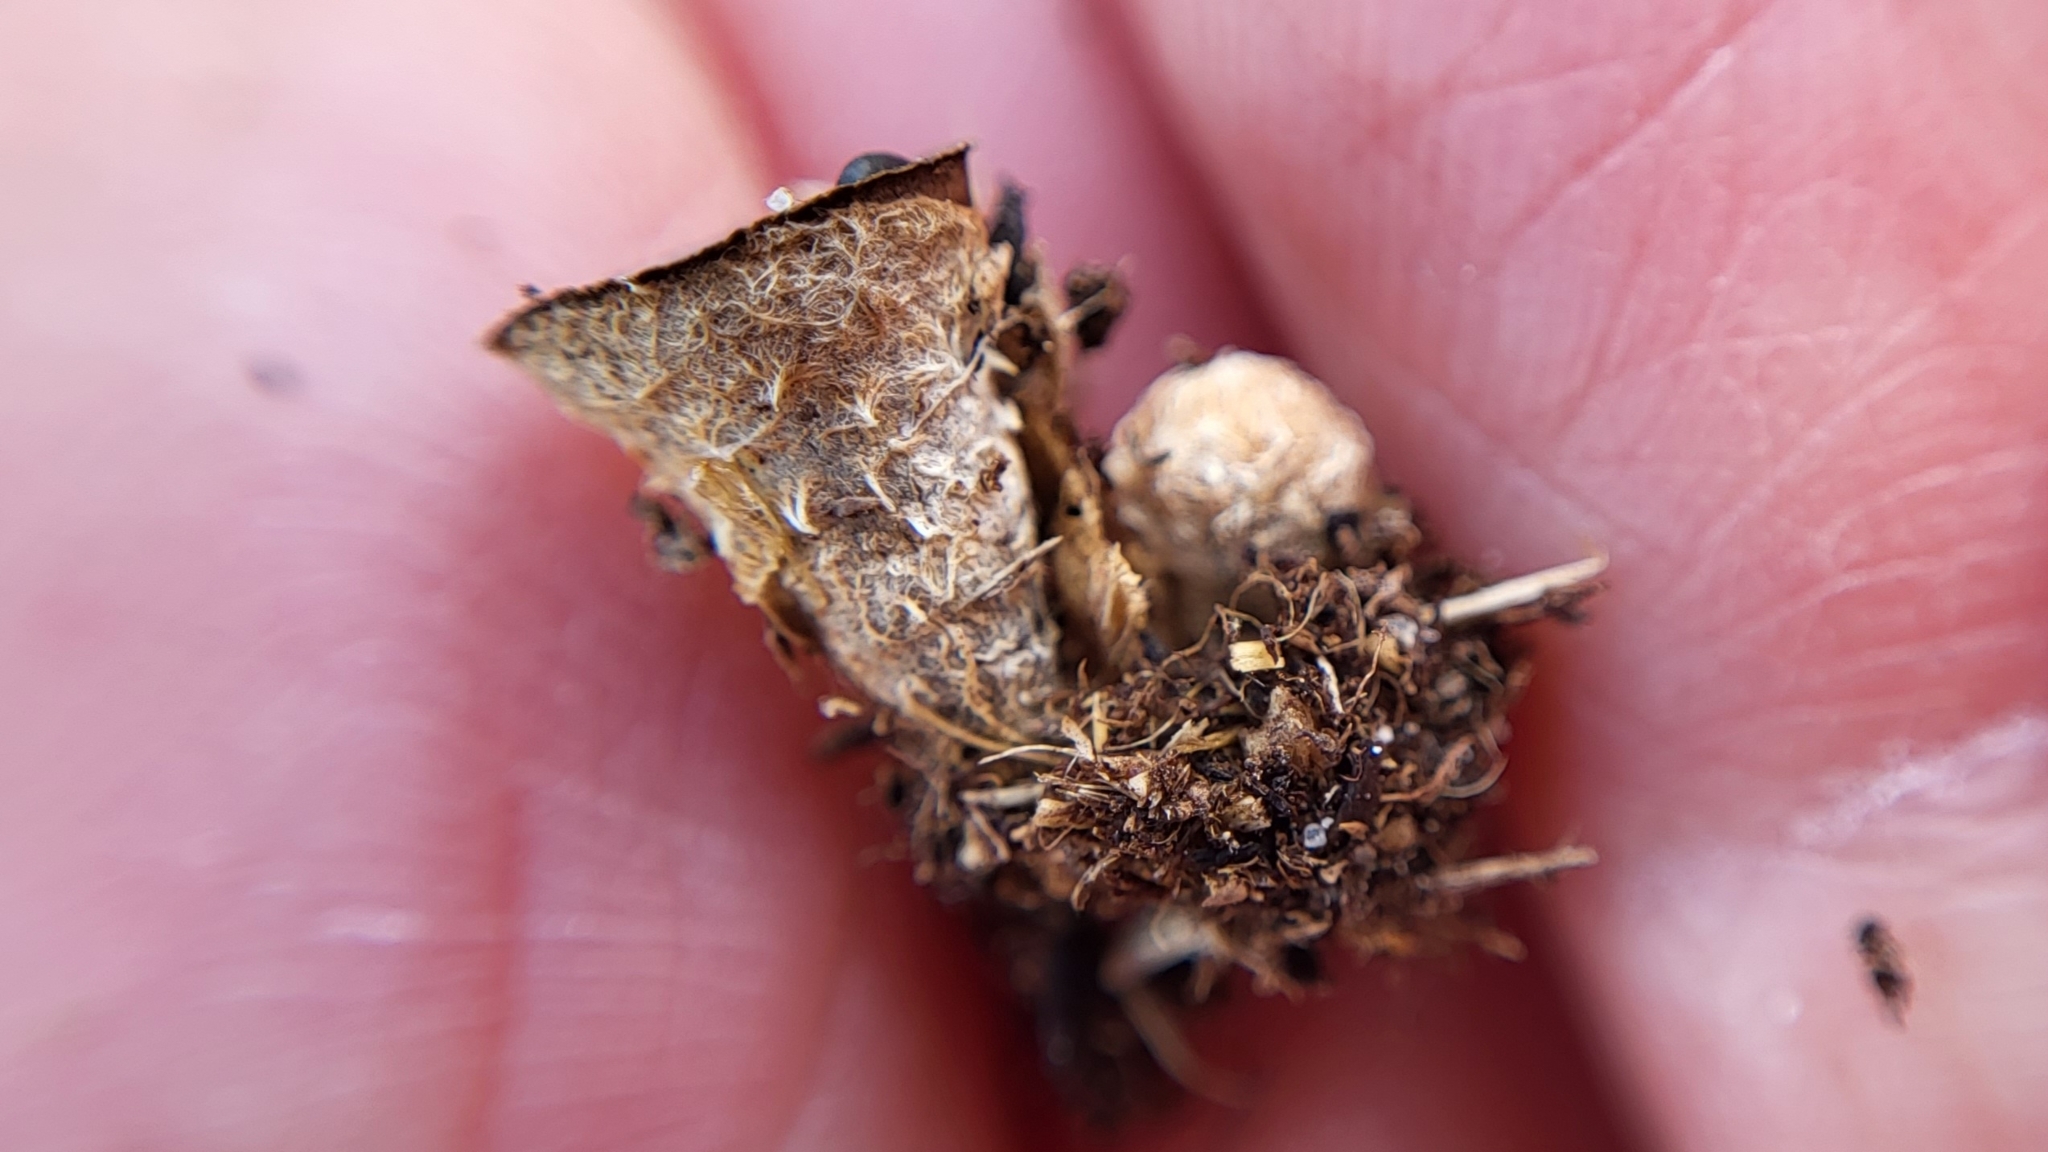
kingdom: Fungi
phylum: Basidiomycota
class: Agaricomycetes
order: Agaricales
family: Agaricaceae
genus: Cyathus
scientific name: Cyathus stercoreus
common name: Dung bird's nest
